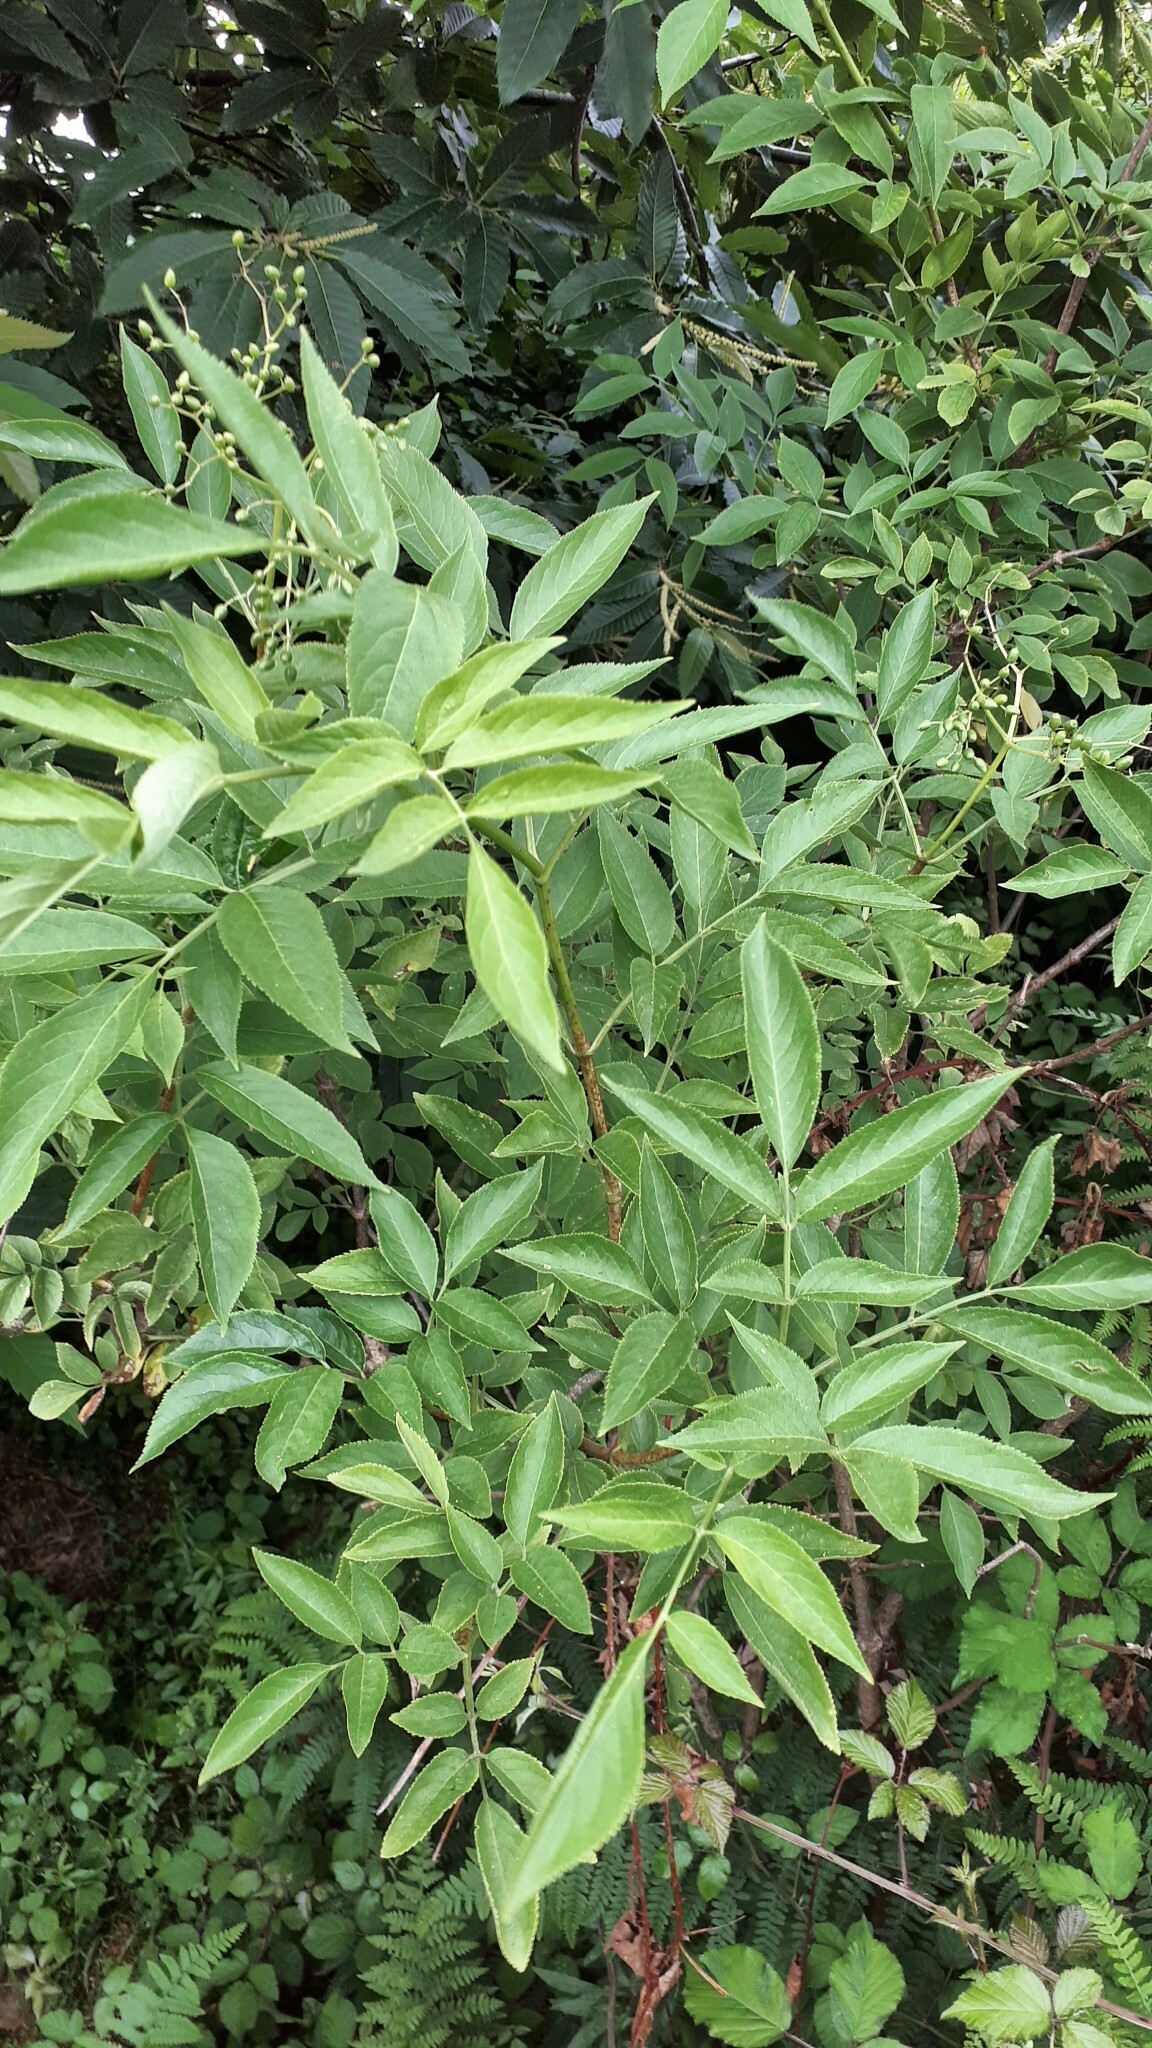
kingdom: Plantae
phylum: Tracheophyta
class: Magnoliopsida
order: Dipsacales
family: Viburnaceae
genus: Sambucus
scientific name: Sambucus nigra
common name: Elder
